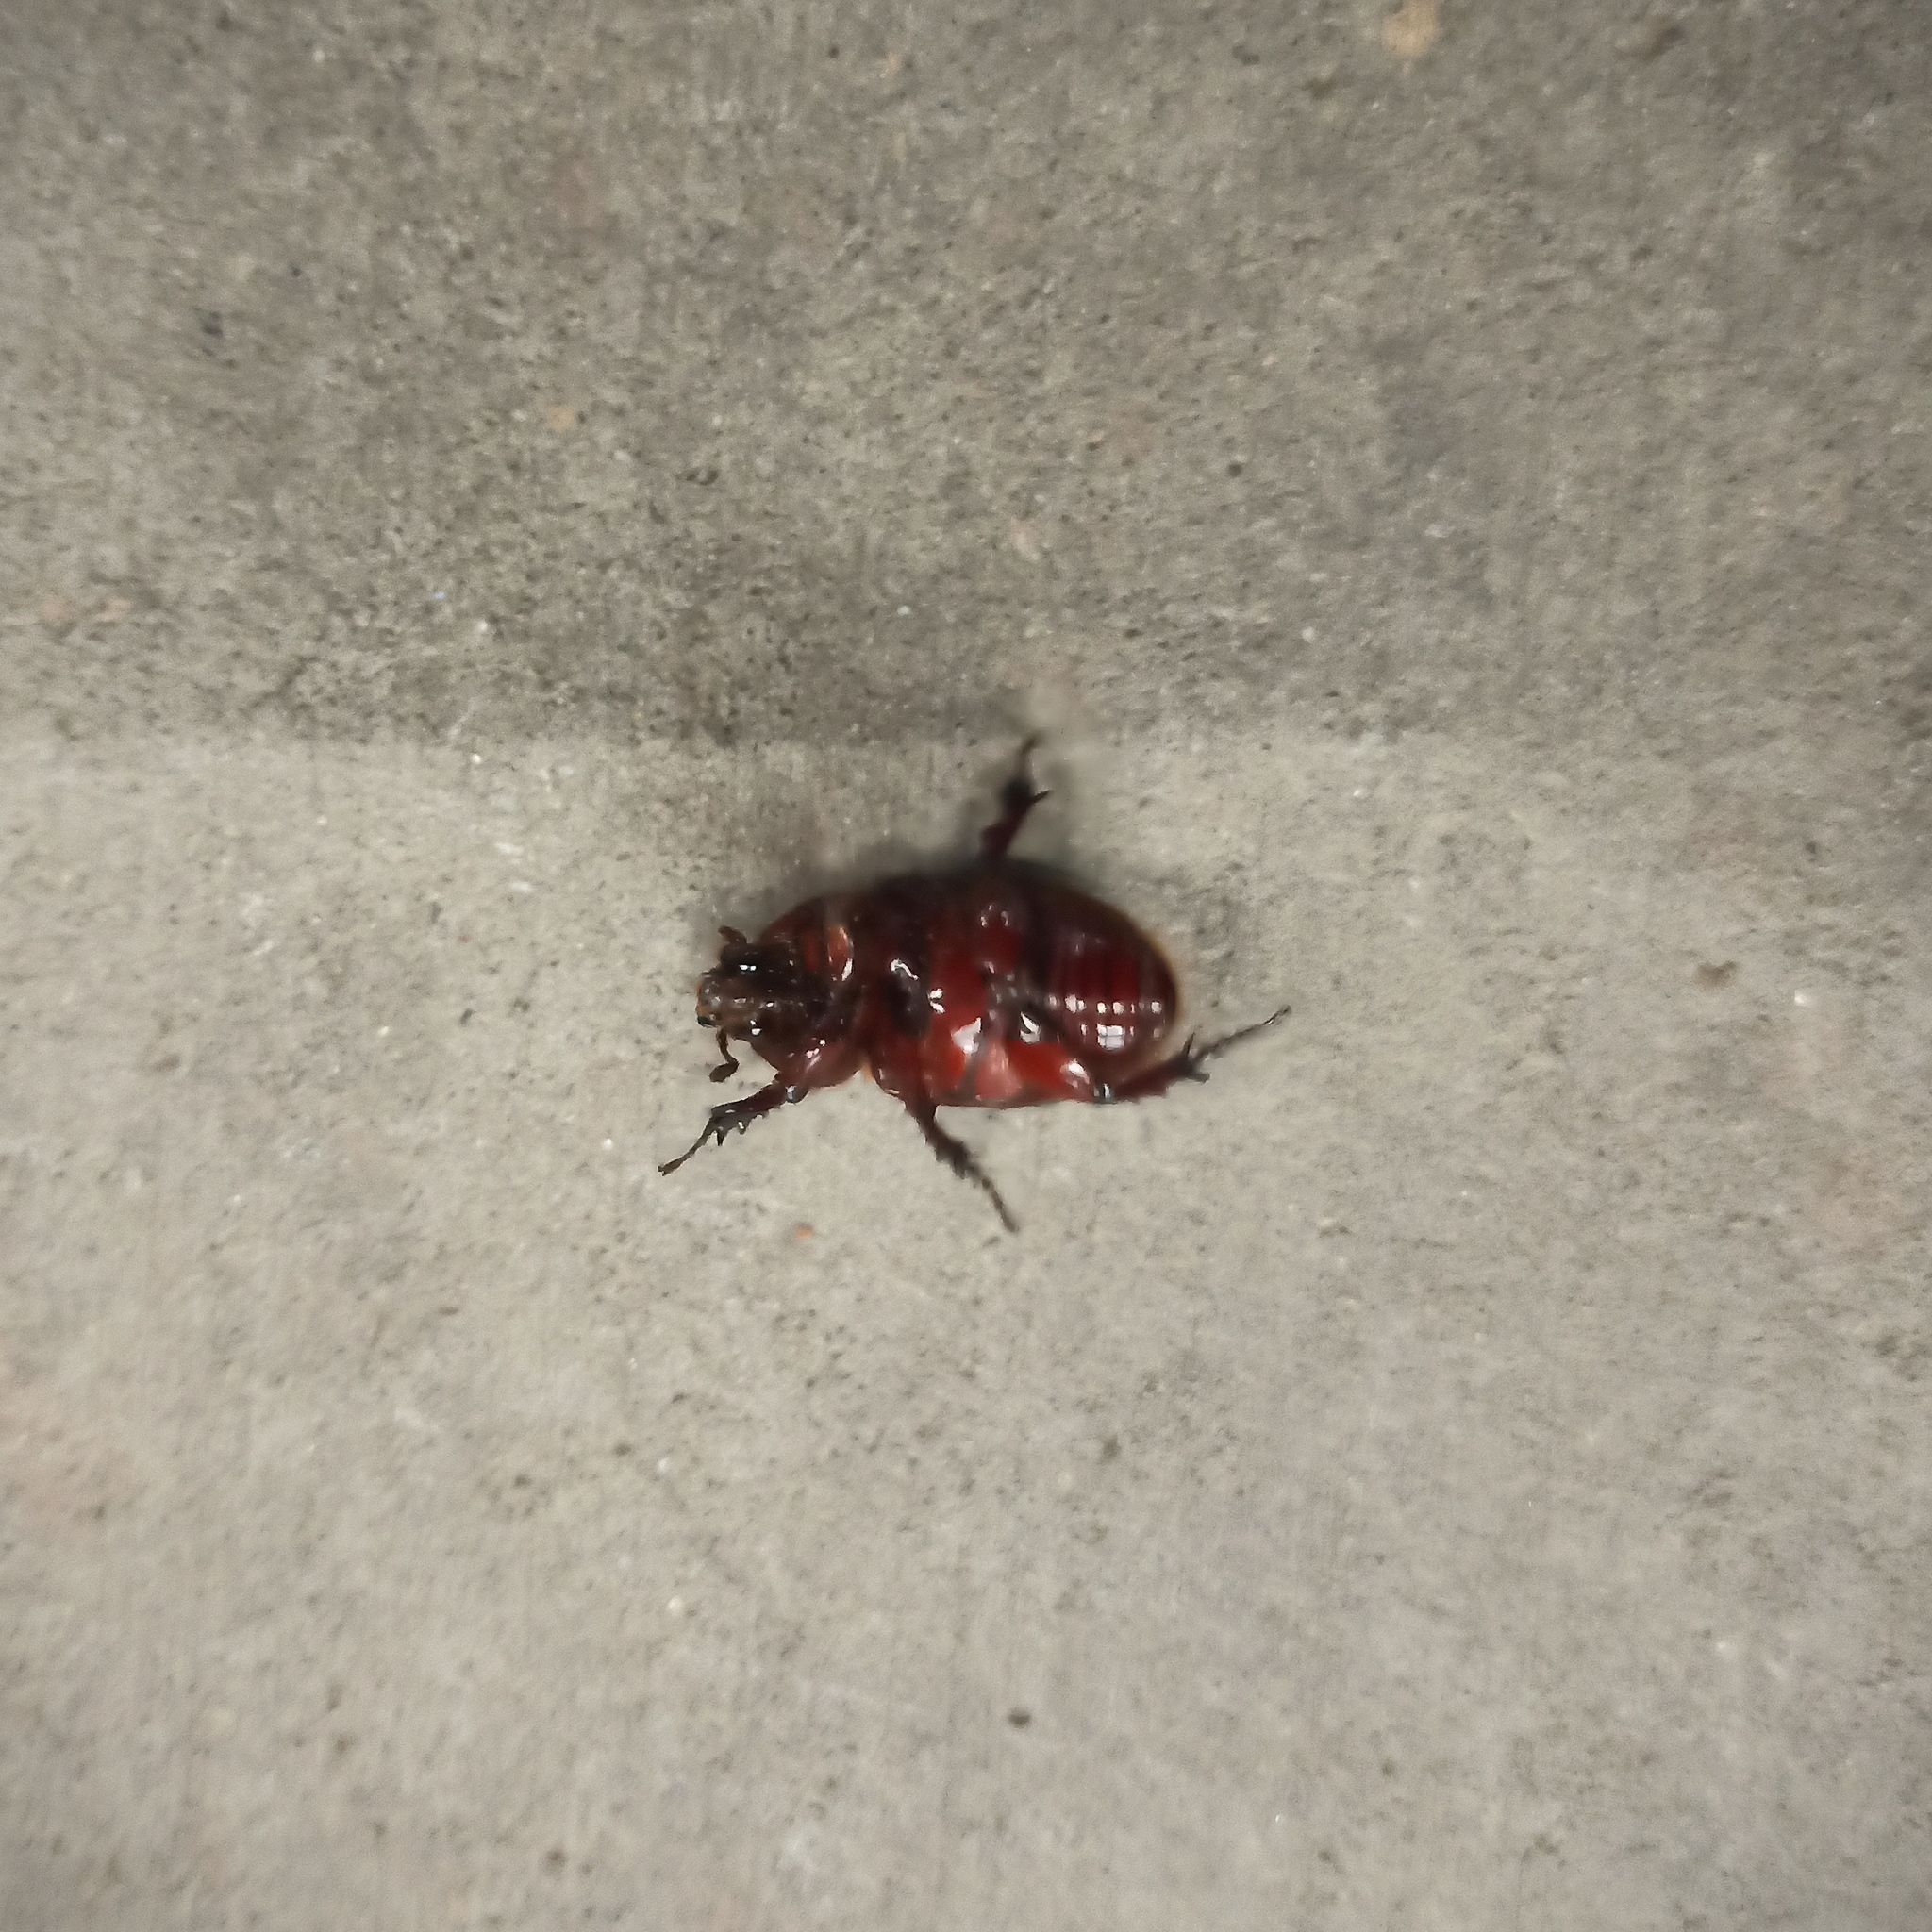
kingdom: Animalia
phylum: Arthropoda
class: Insecta
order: Coleoptera
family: Scarabaeidae
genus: Strategus
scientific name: Strategus aloeus
